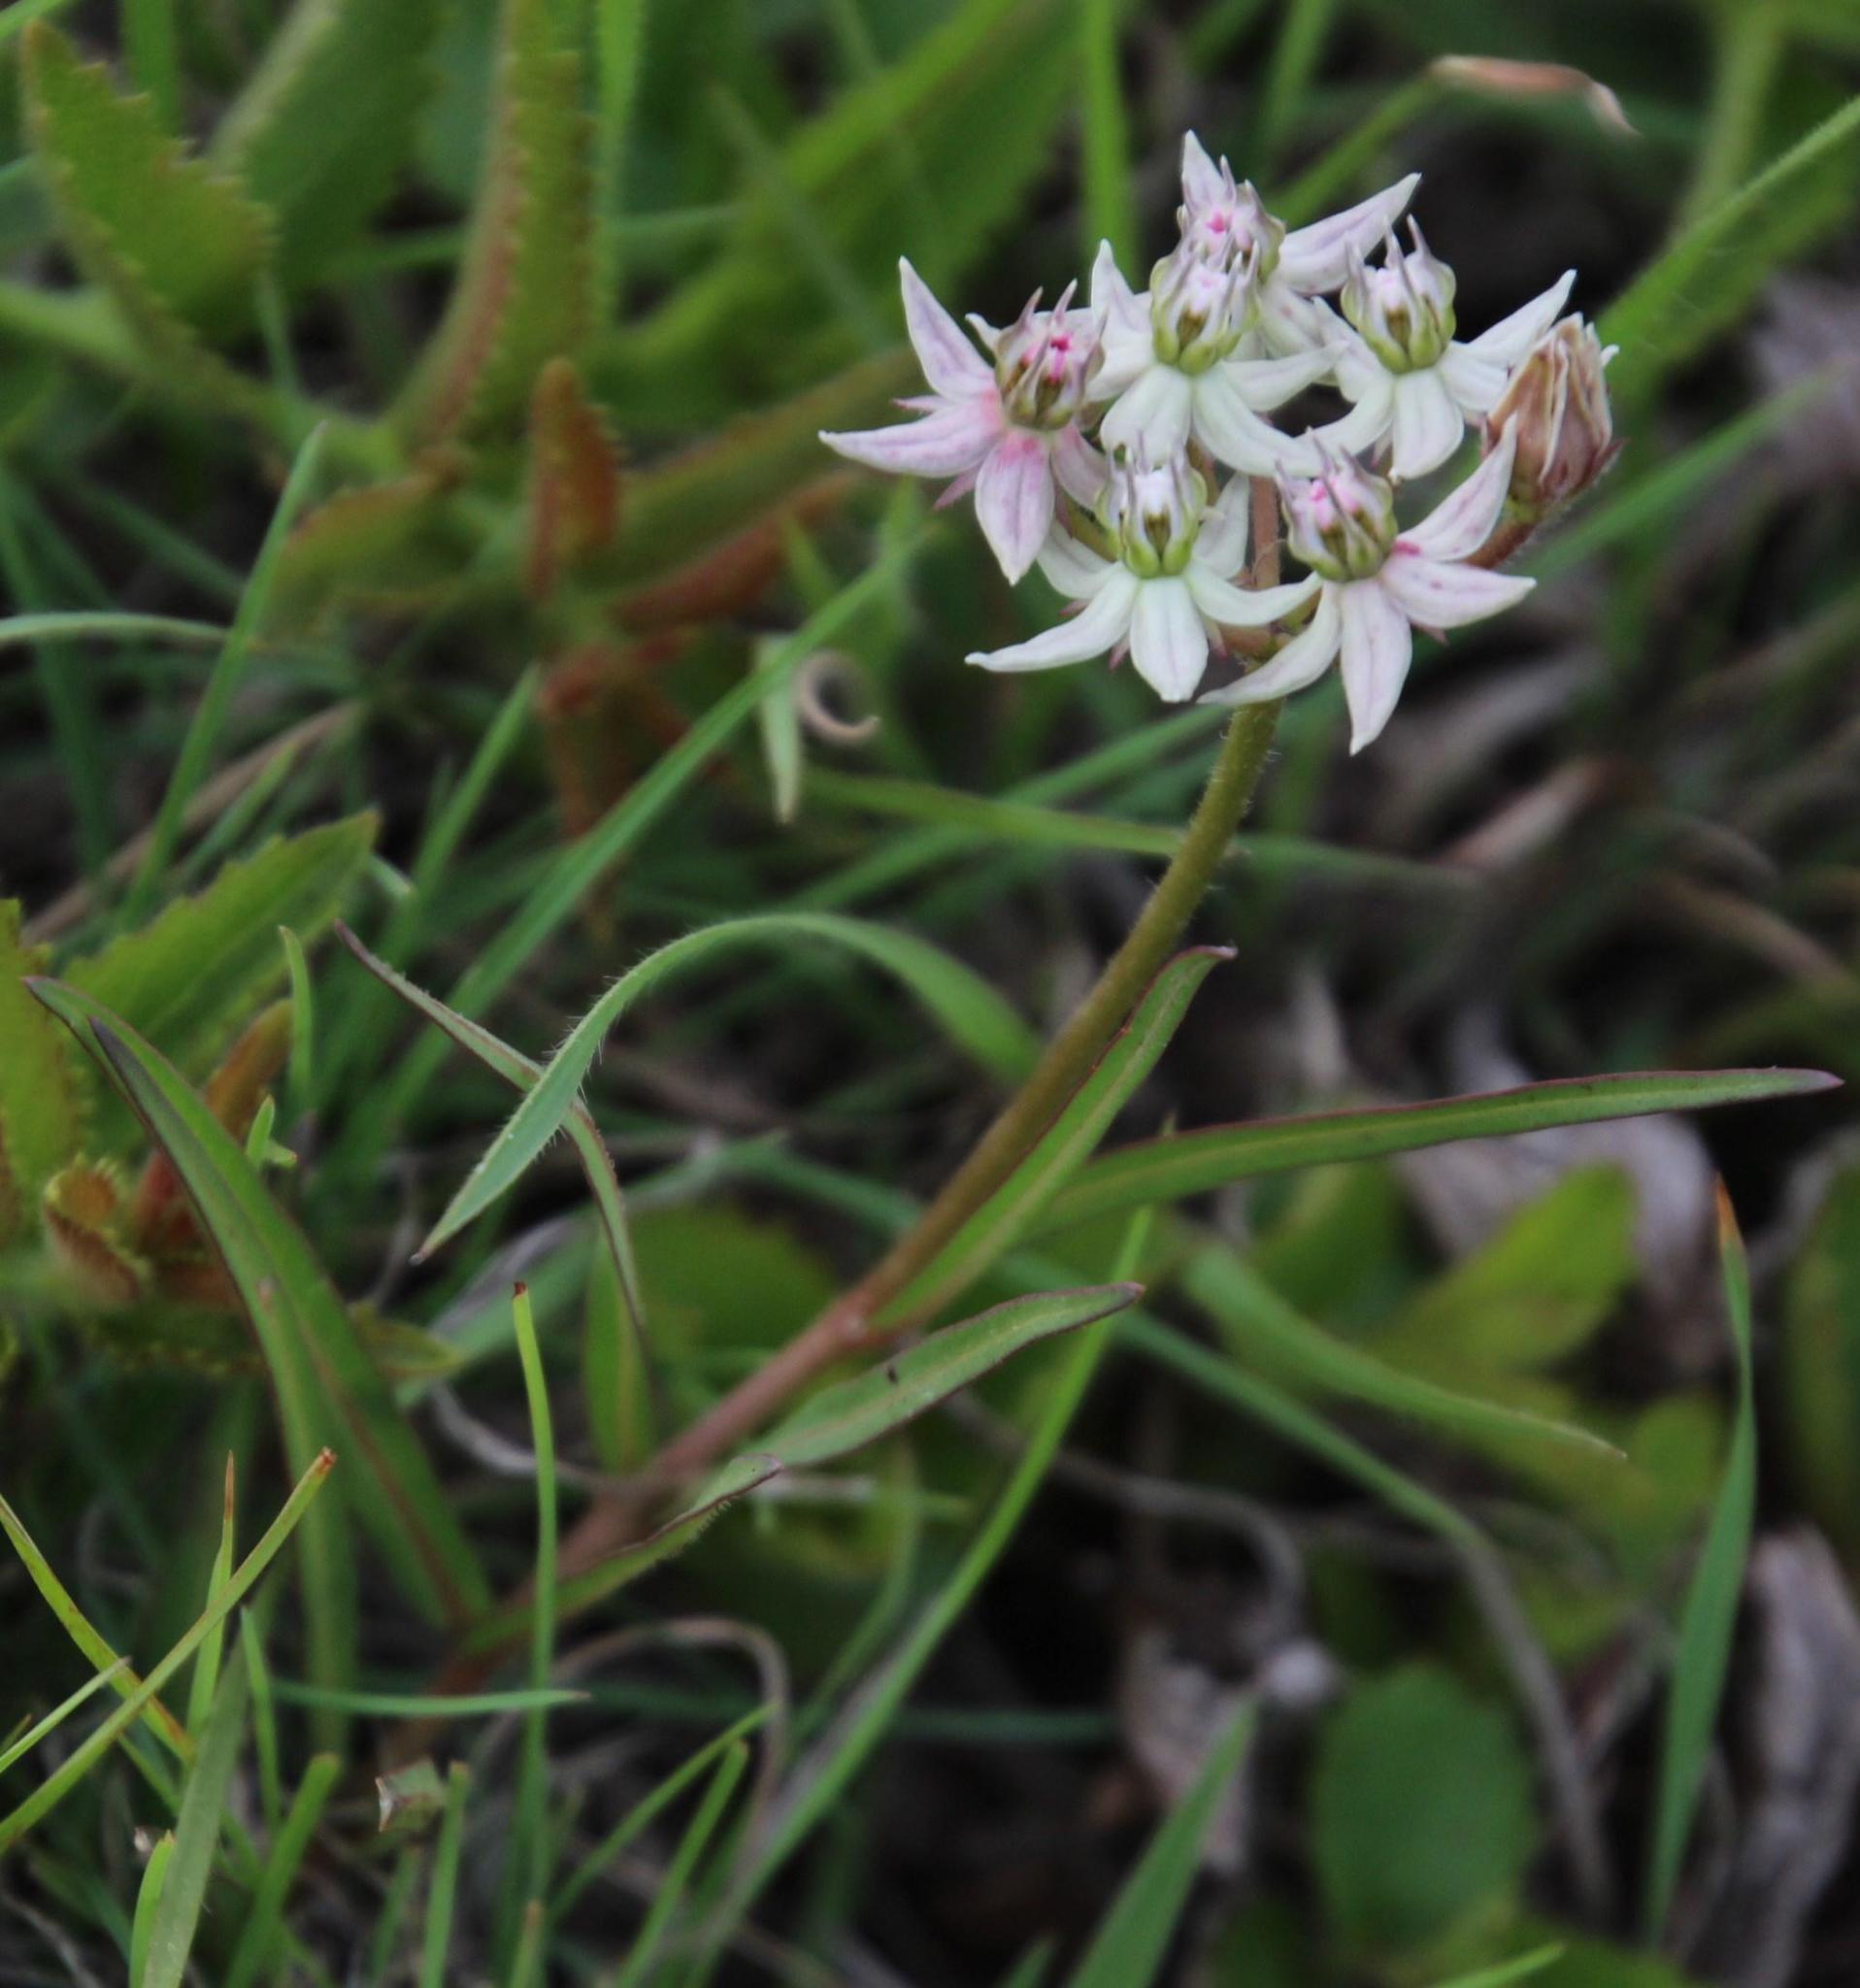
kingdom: Plantae
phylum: Tracheophyta
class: Magnoliopsida
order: Gentianales
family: Apocynaceae
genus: Asclepias
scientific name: Asclepias gibba
